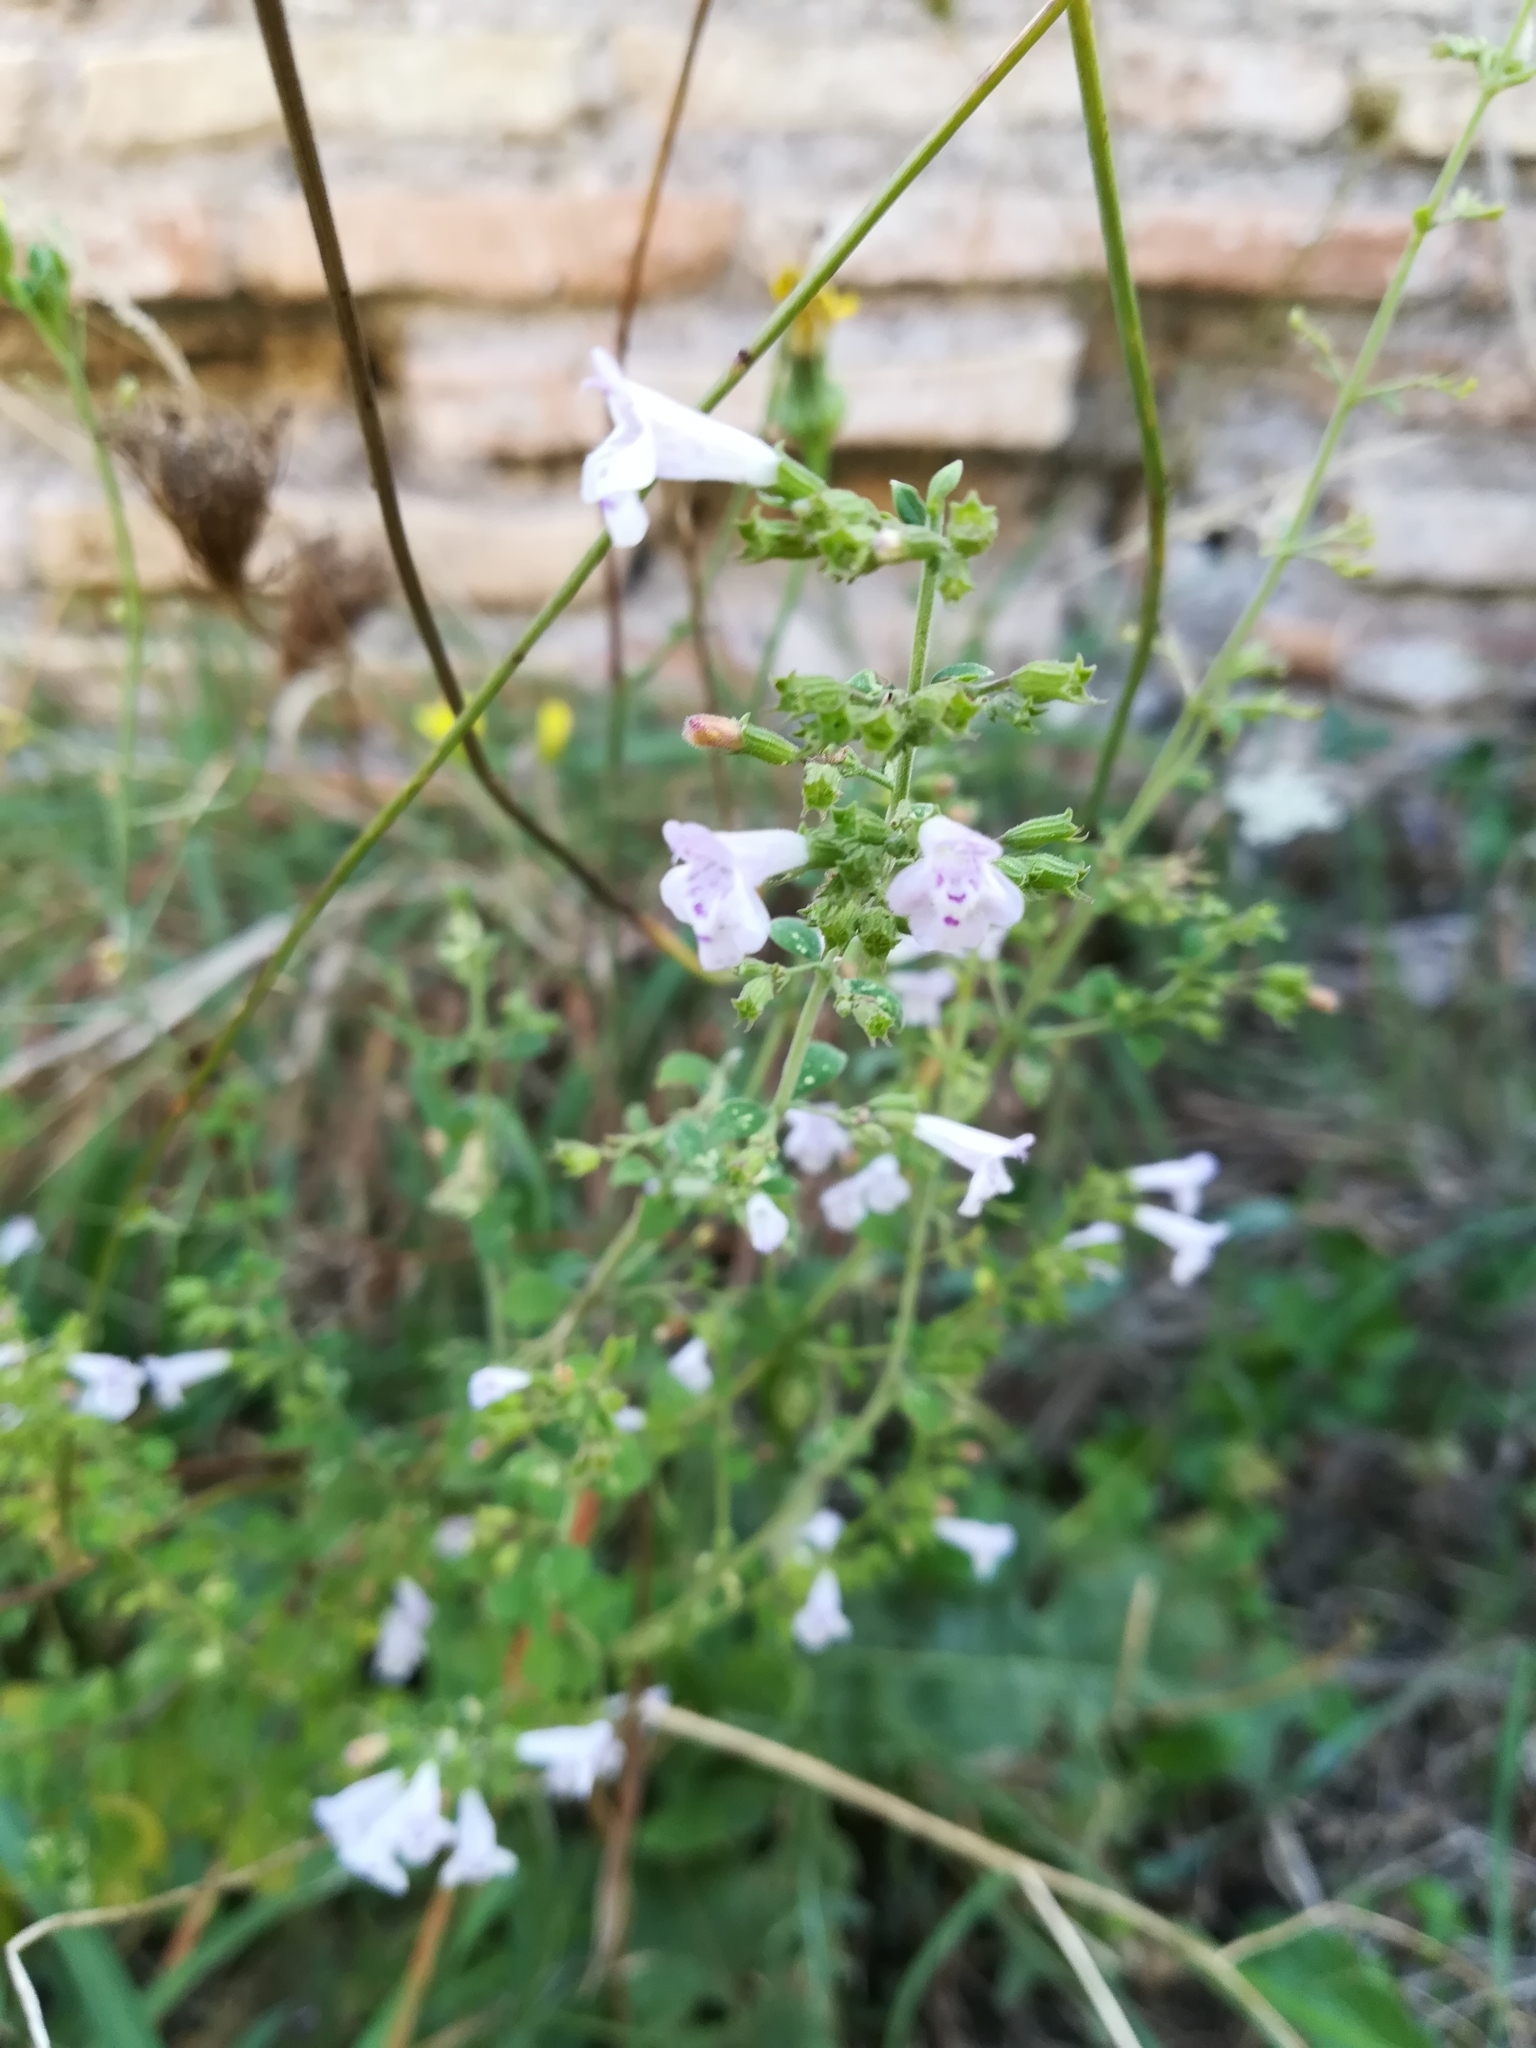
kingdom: Plantae
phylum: Tracheophyta
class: Magnoliopsida
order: Lamiales
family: Lamiaceae
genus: Clinopodium
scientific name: Clinopodium nepeta
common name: Lesser calamint
